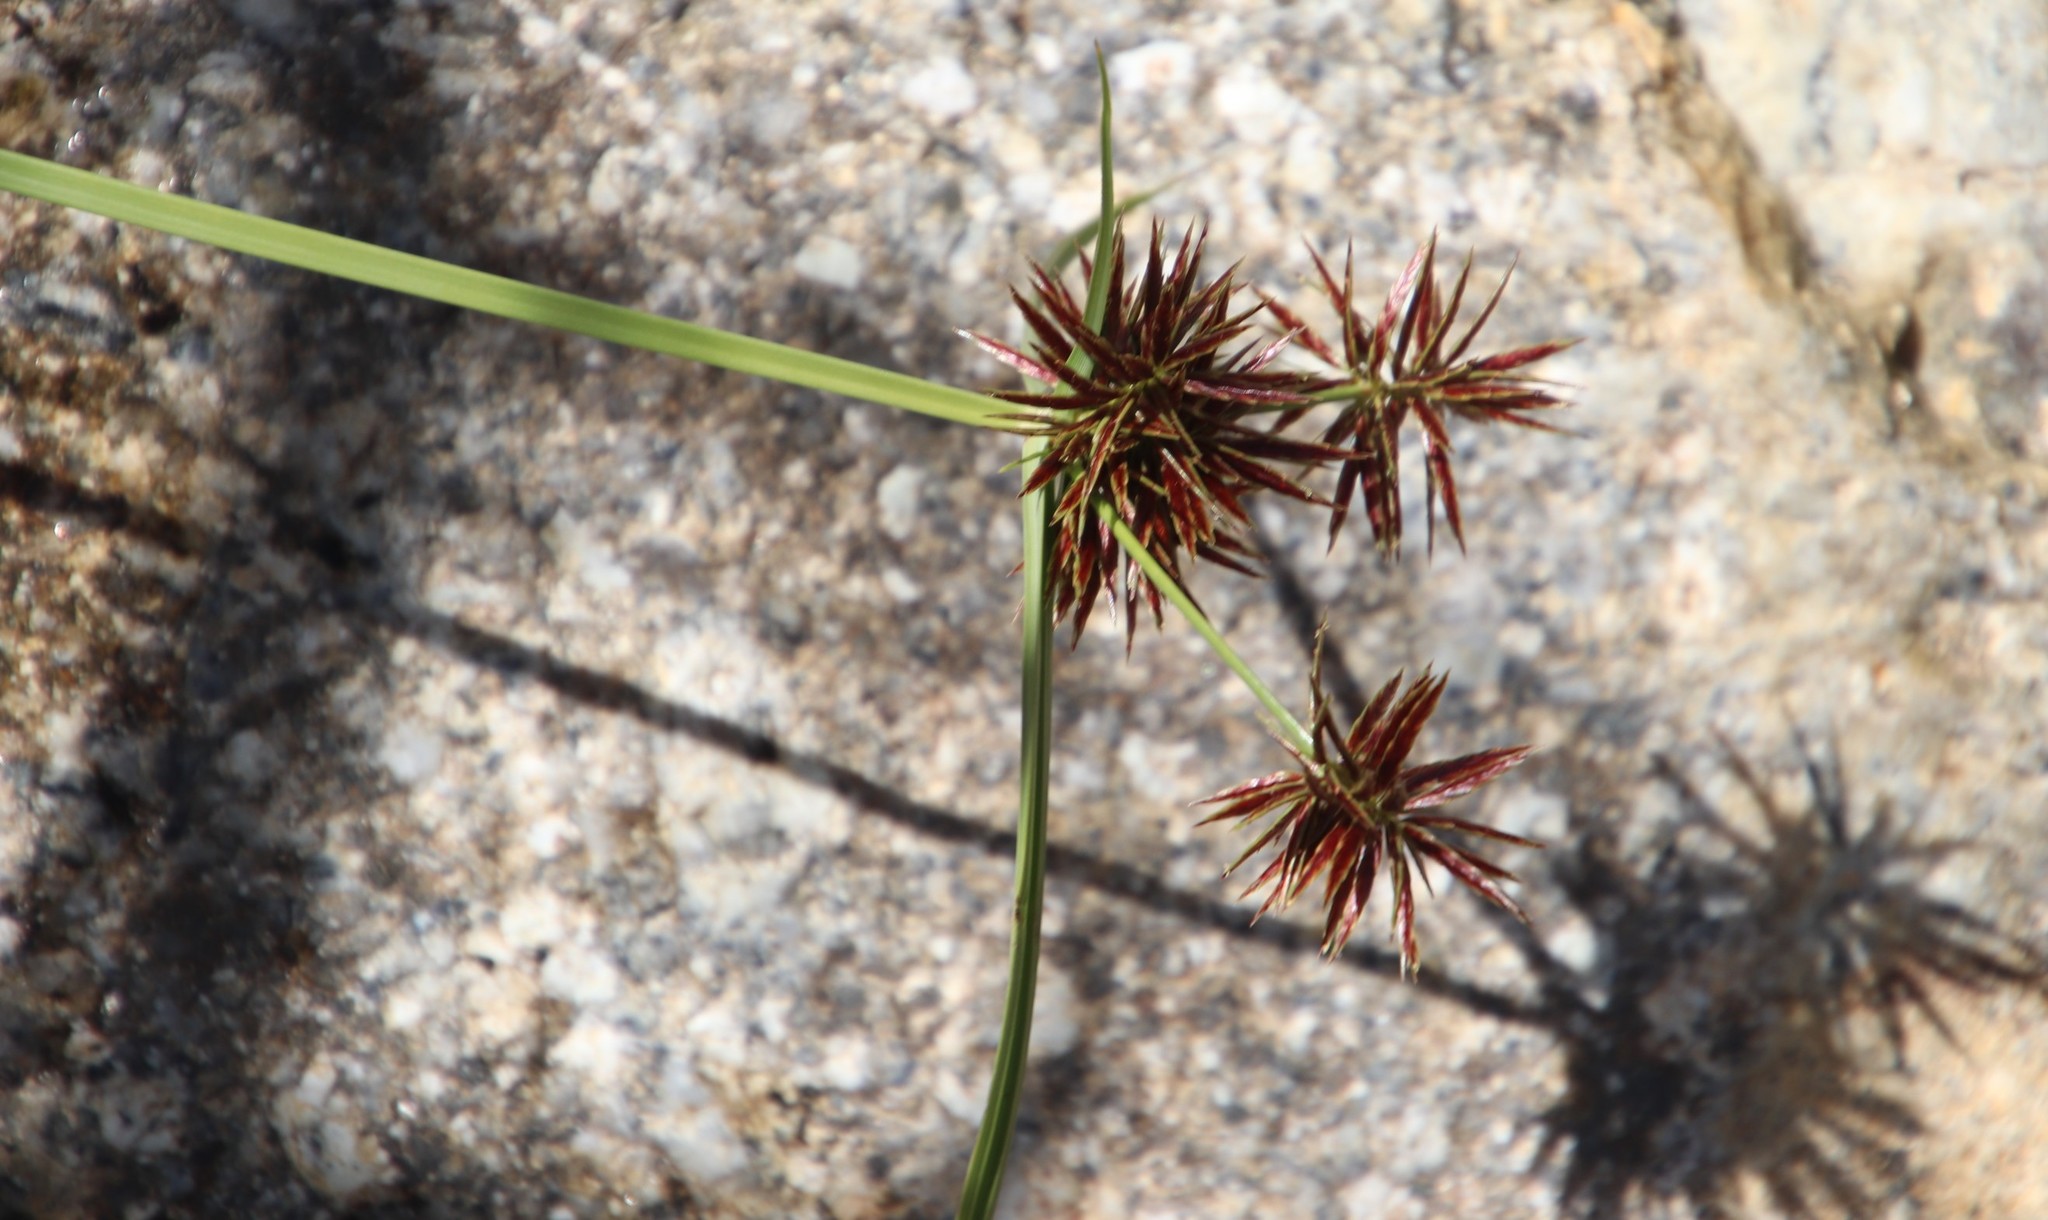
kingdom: Plantae
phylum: Tracheophyta
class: Liliopsida
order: Poales
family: Cyperaceae
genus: Cyperus
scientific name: Cyperus congestus
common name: Dense flat sedge
